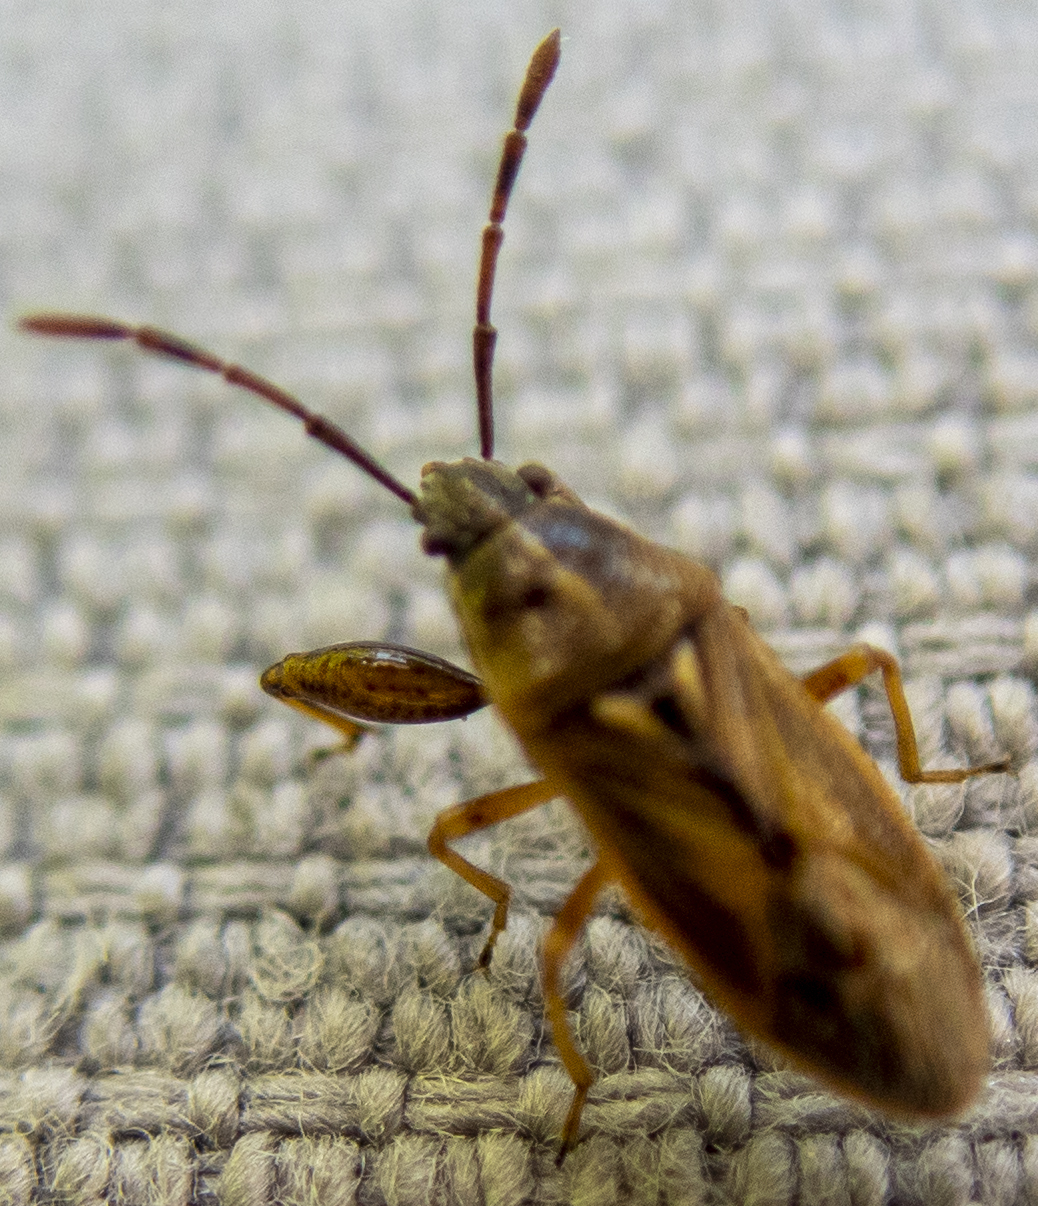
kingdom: Animalia
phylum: Arthropoda
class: Insecta
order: Hemiptera
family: Pachygronthidae
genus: Oedancala
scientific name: Oedancala dorsalis
